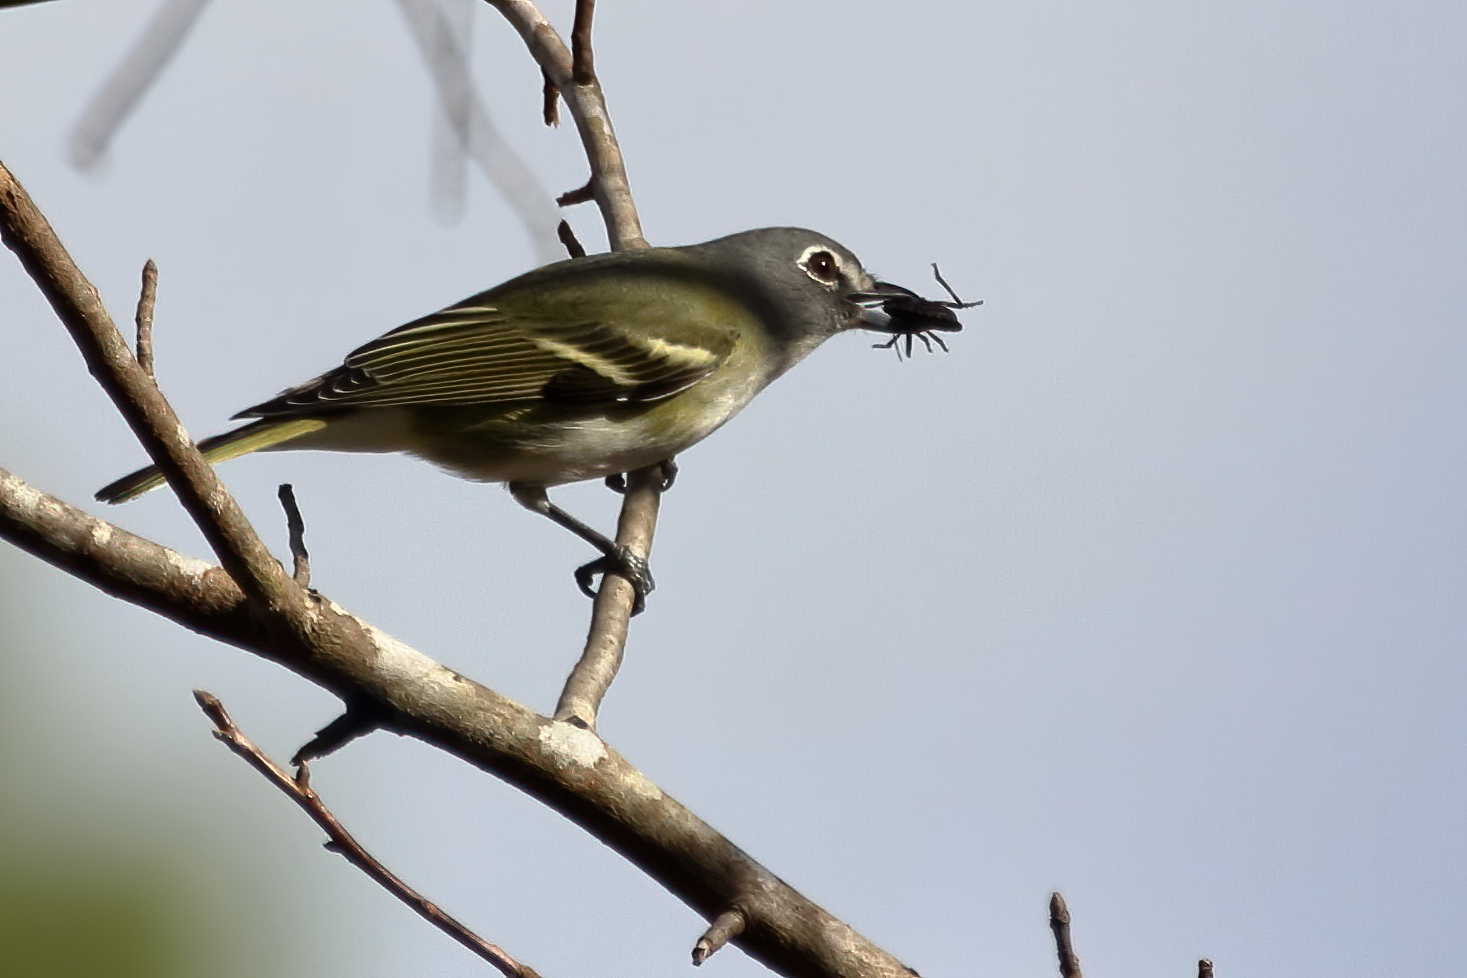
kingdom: Animalia
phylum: Chordata
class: Aves
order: Passeriformes
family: Vireonidae
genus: Vireo
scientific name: Vireo solitarius
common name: Blue-headed vireo
